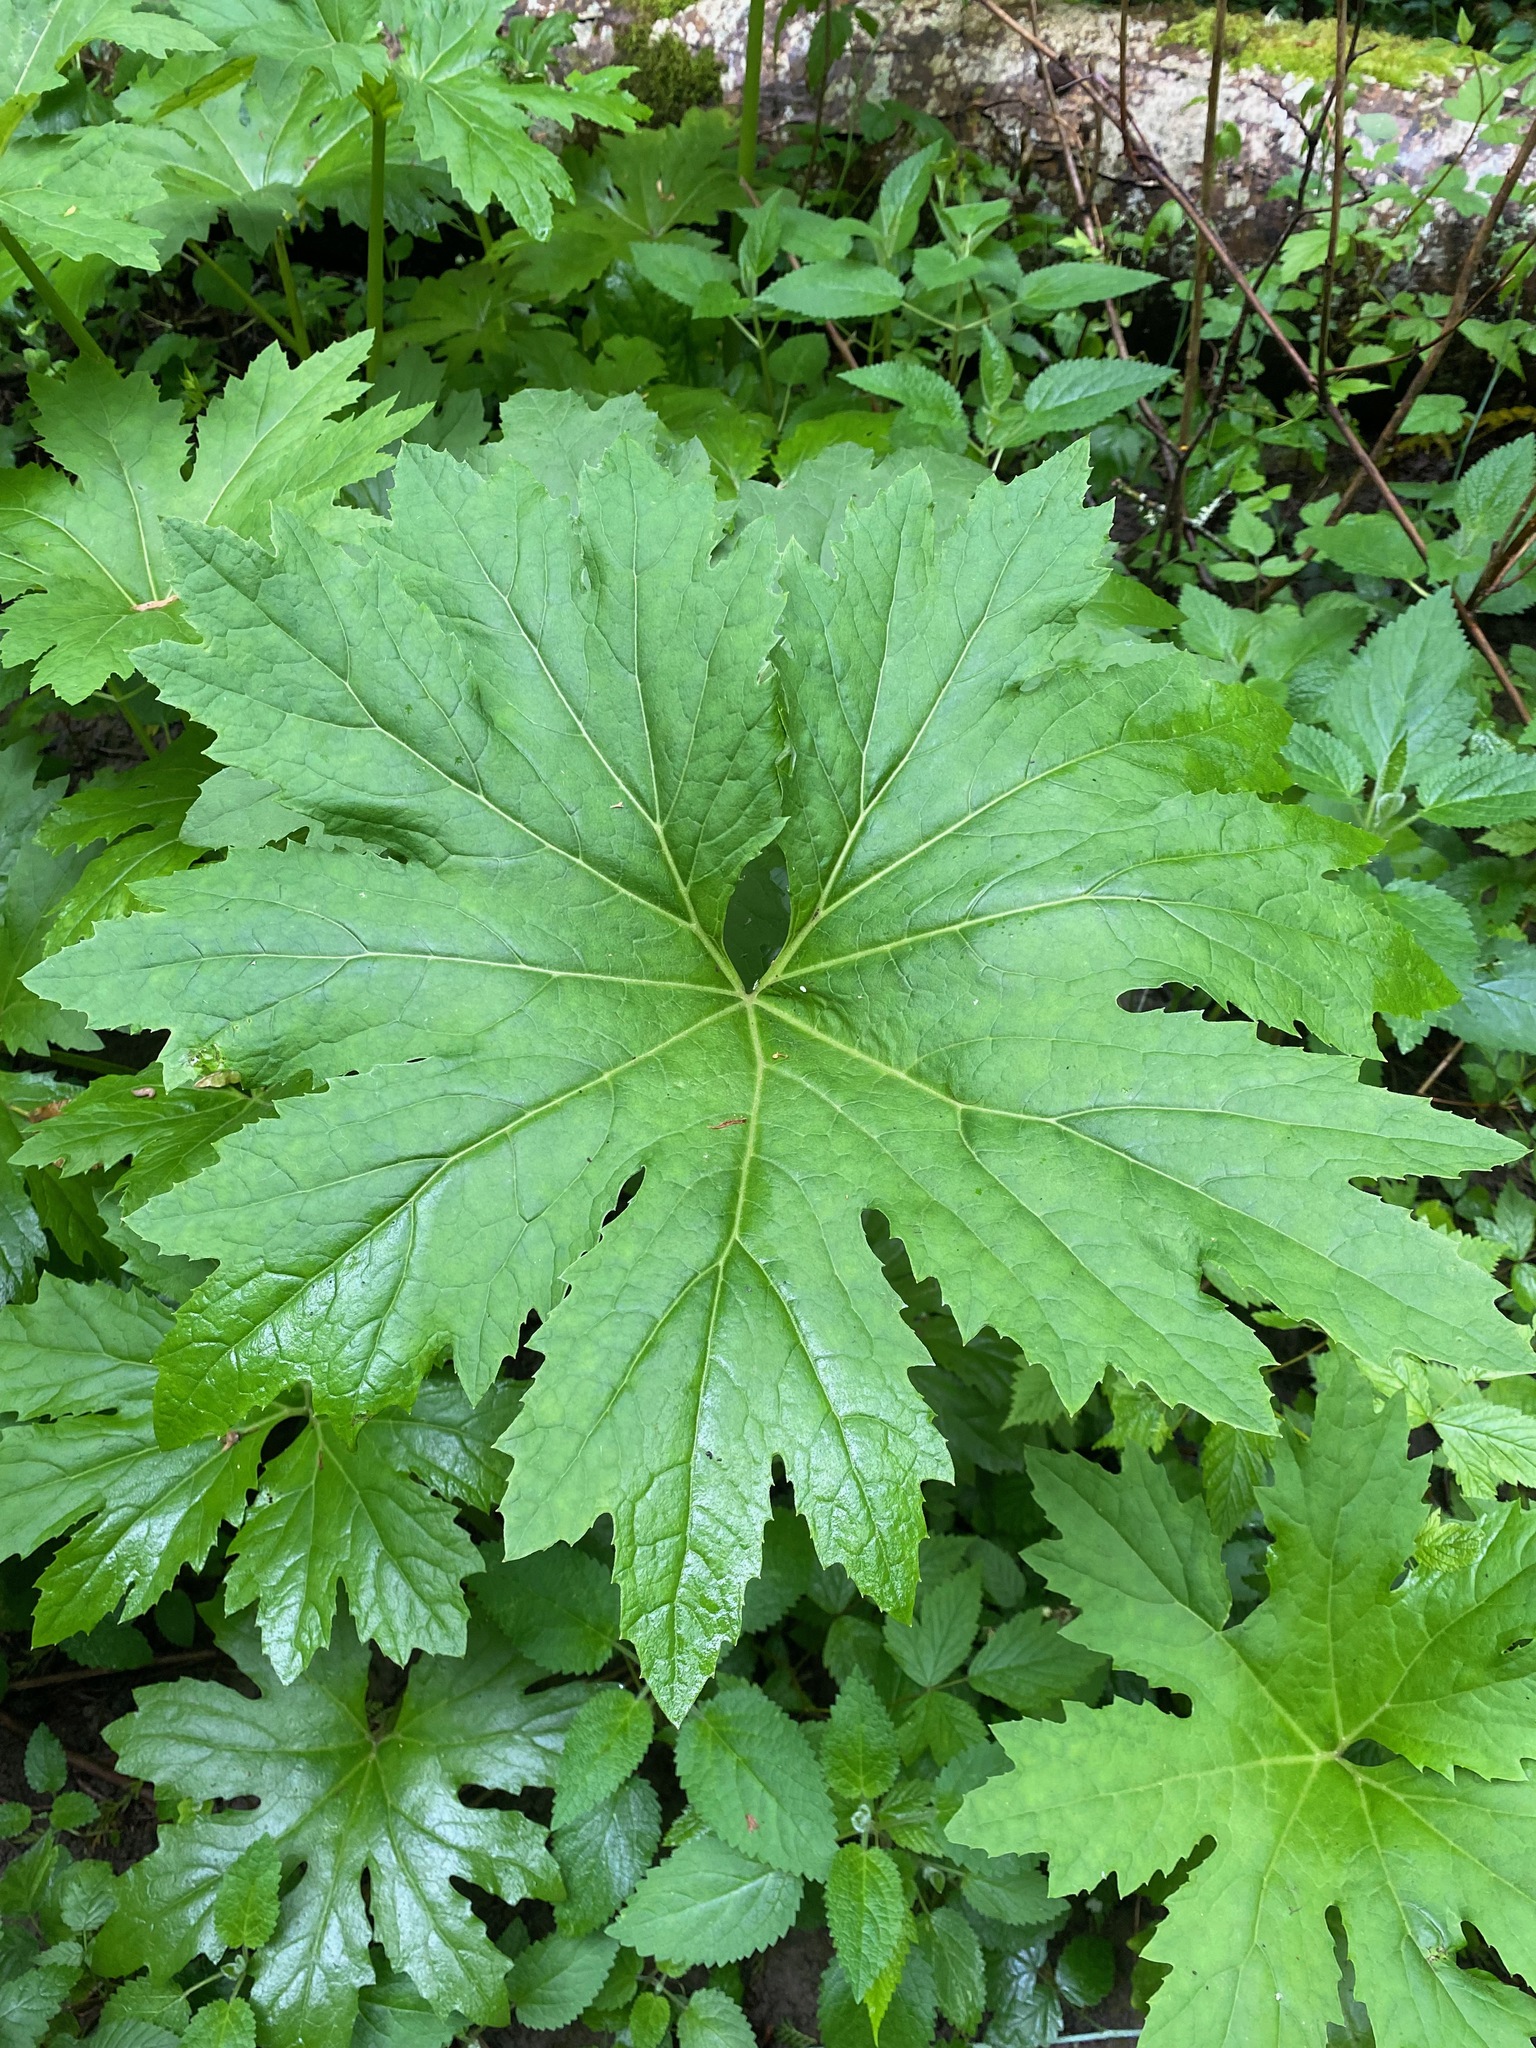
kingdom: Plantae
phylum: Tracheophyta
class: Magnoliopsida
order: Asterales
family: Asteraceae
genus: Petasites
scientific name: Petasites frigidus
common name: Arctic butterbur
